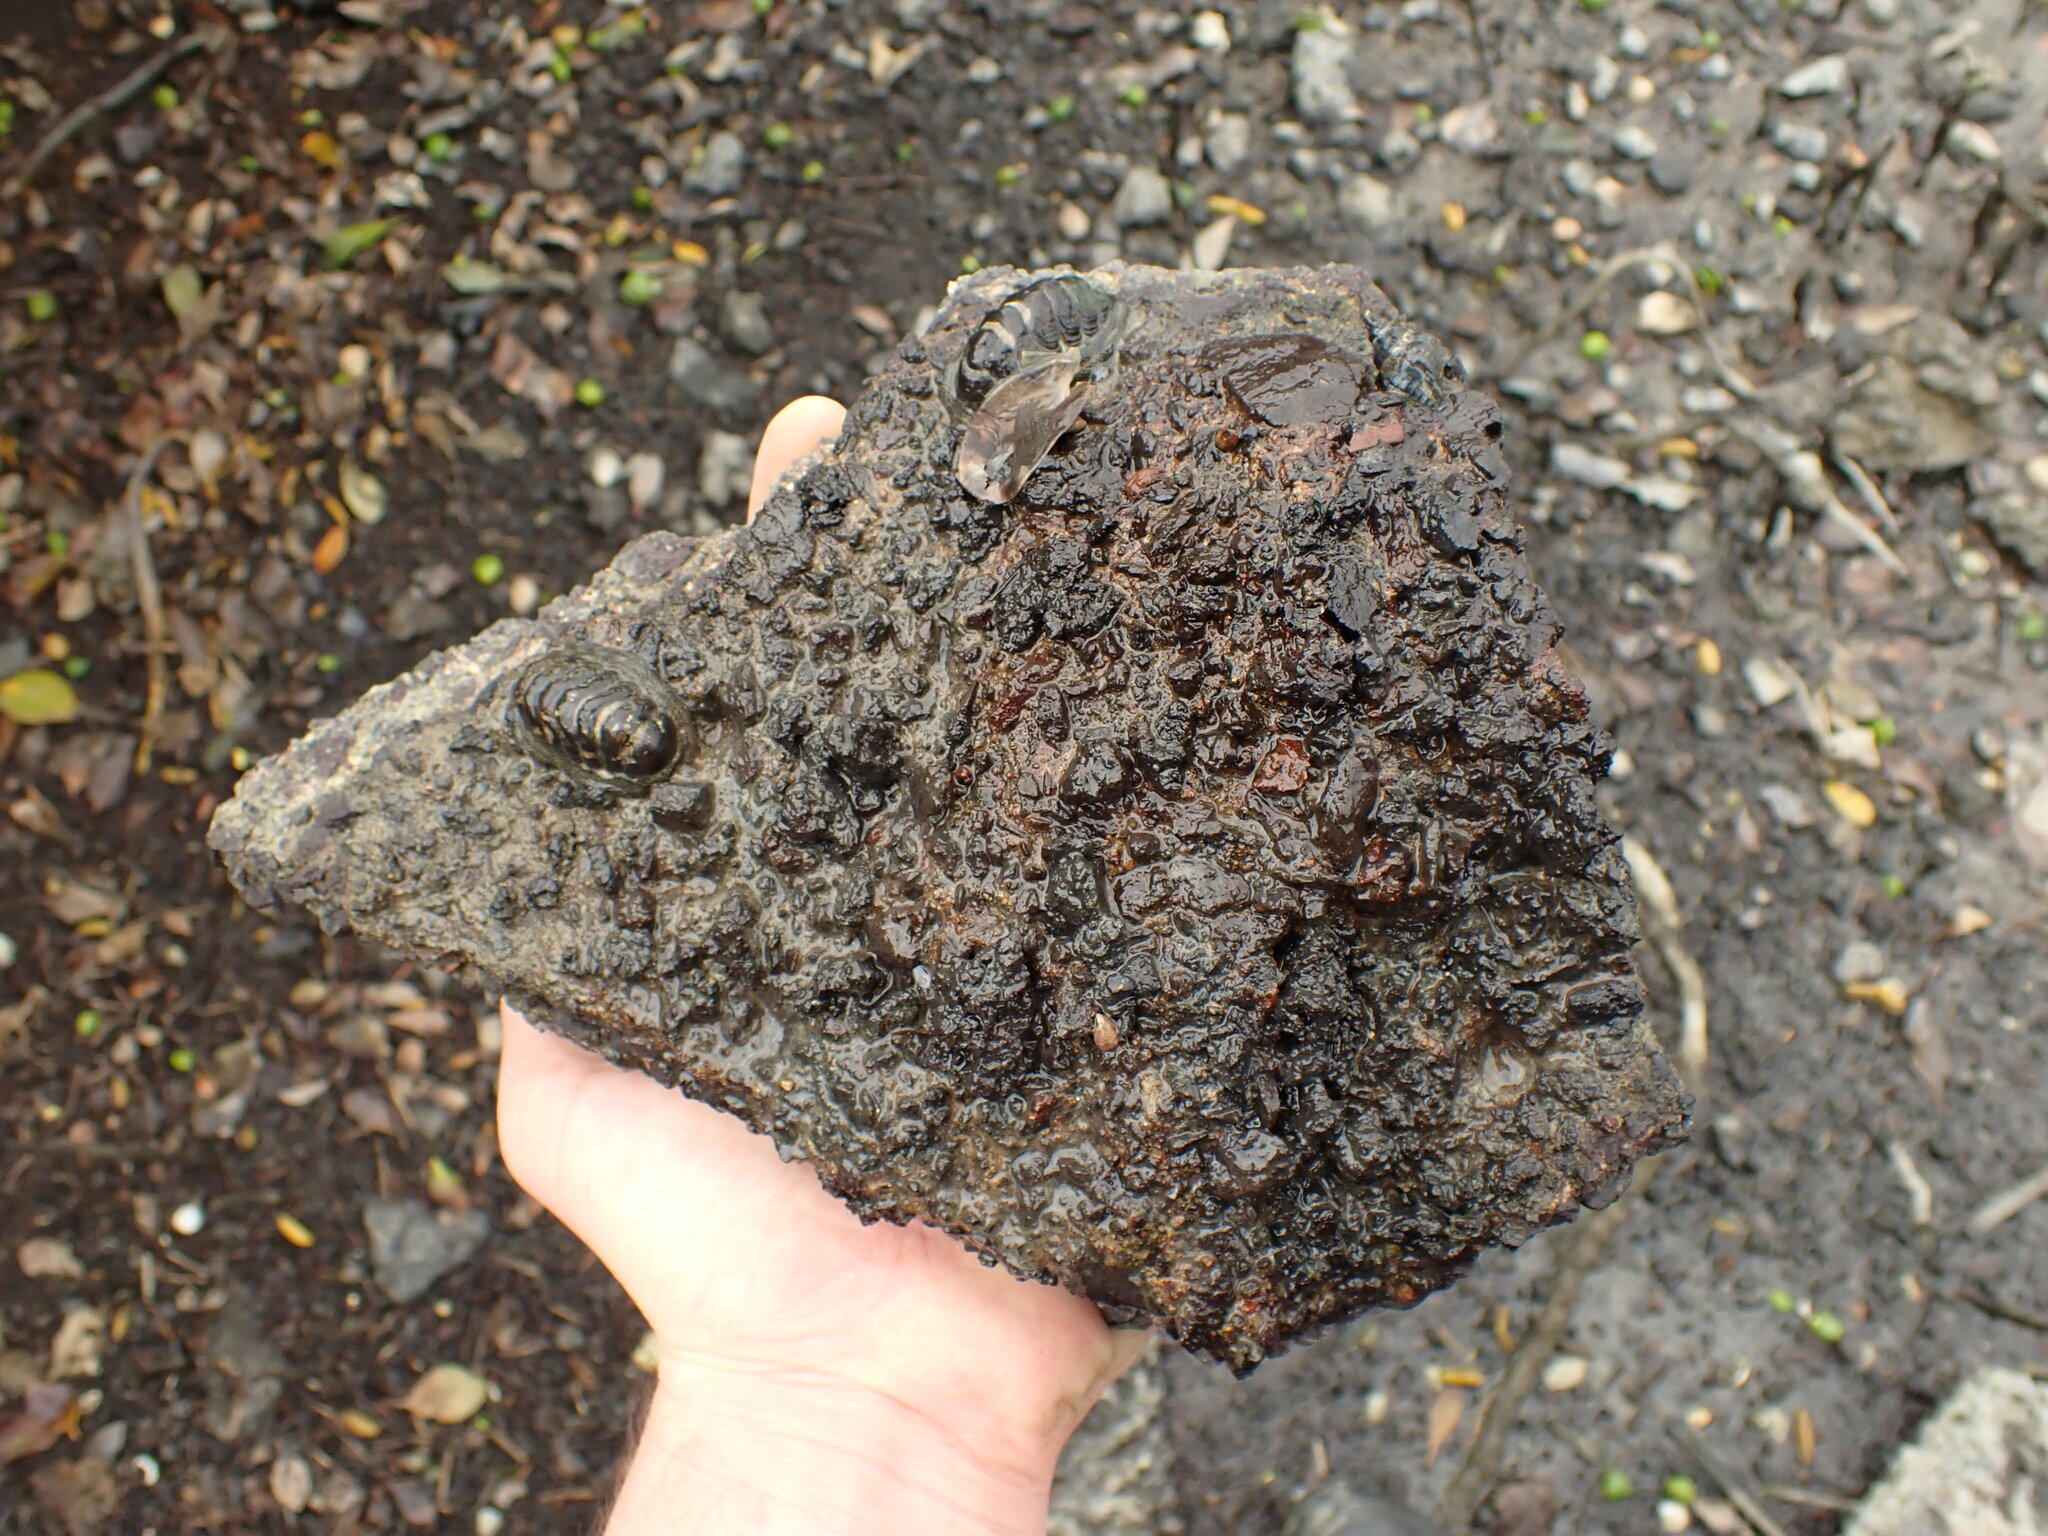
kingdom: Animalia
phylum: Mollusca
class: Polyplacophora
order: Chitonida
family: Chitonidae
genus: Sypharochiton
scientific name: Sypharochiton pelliserpentis
